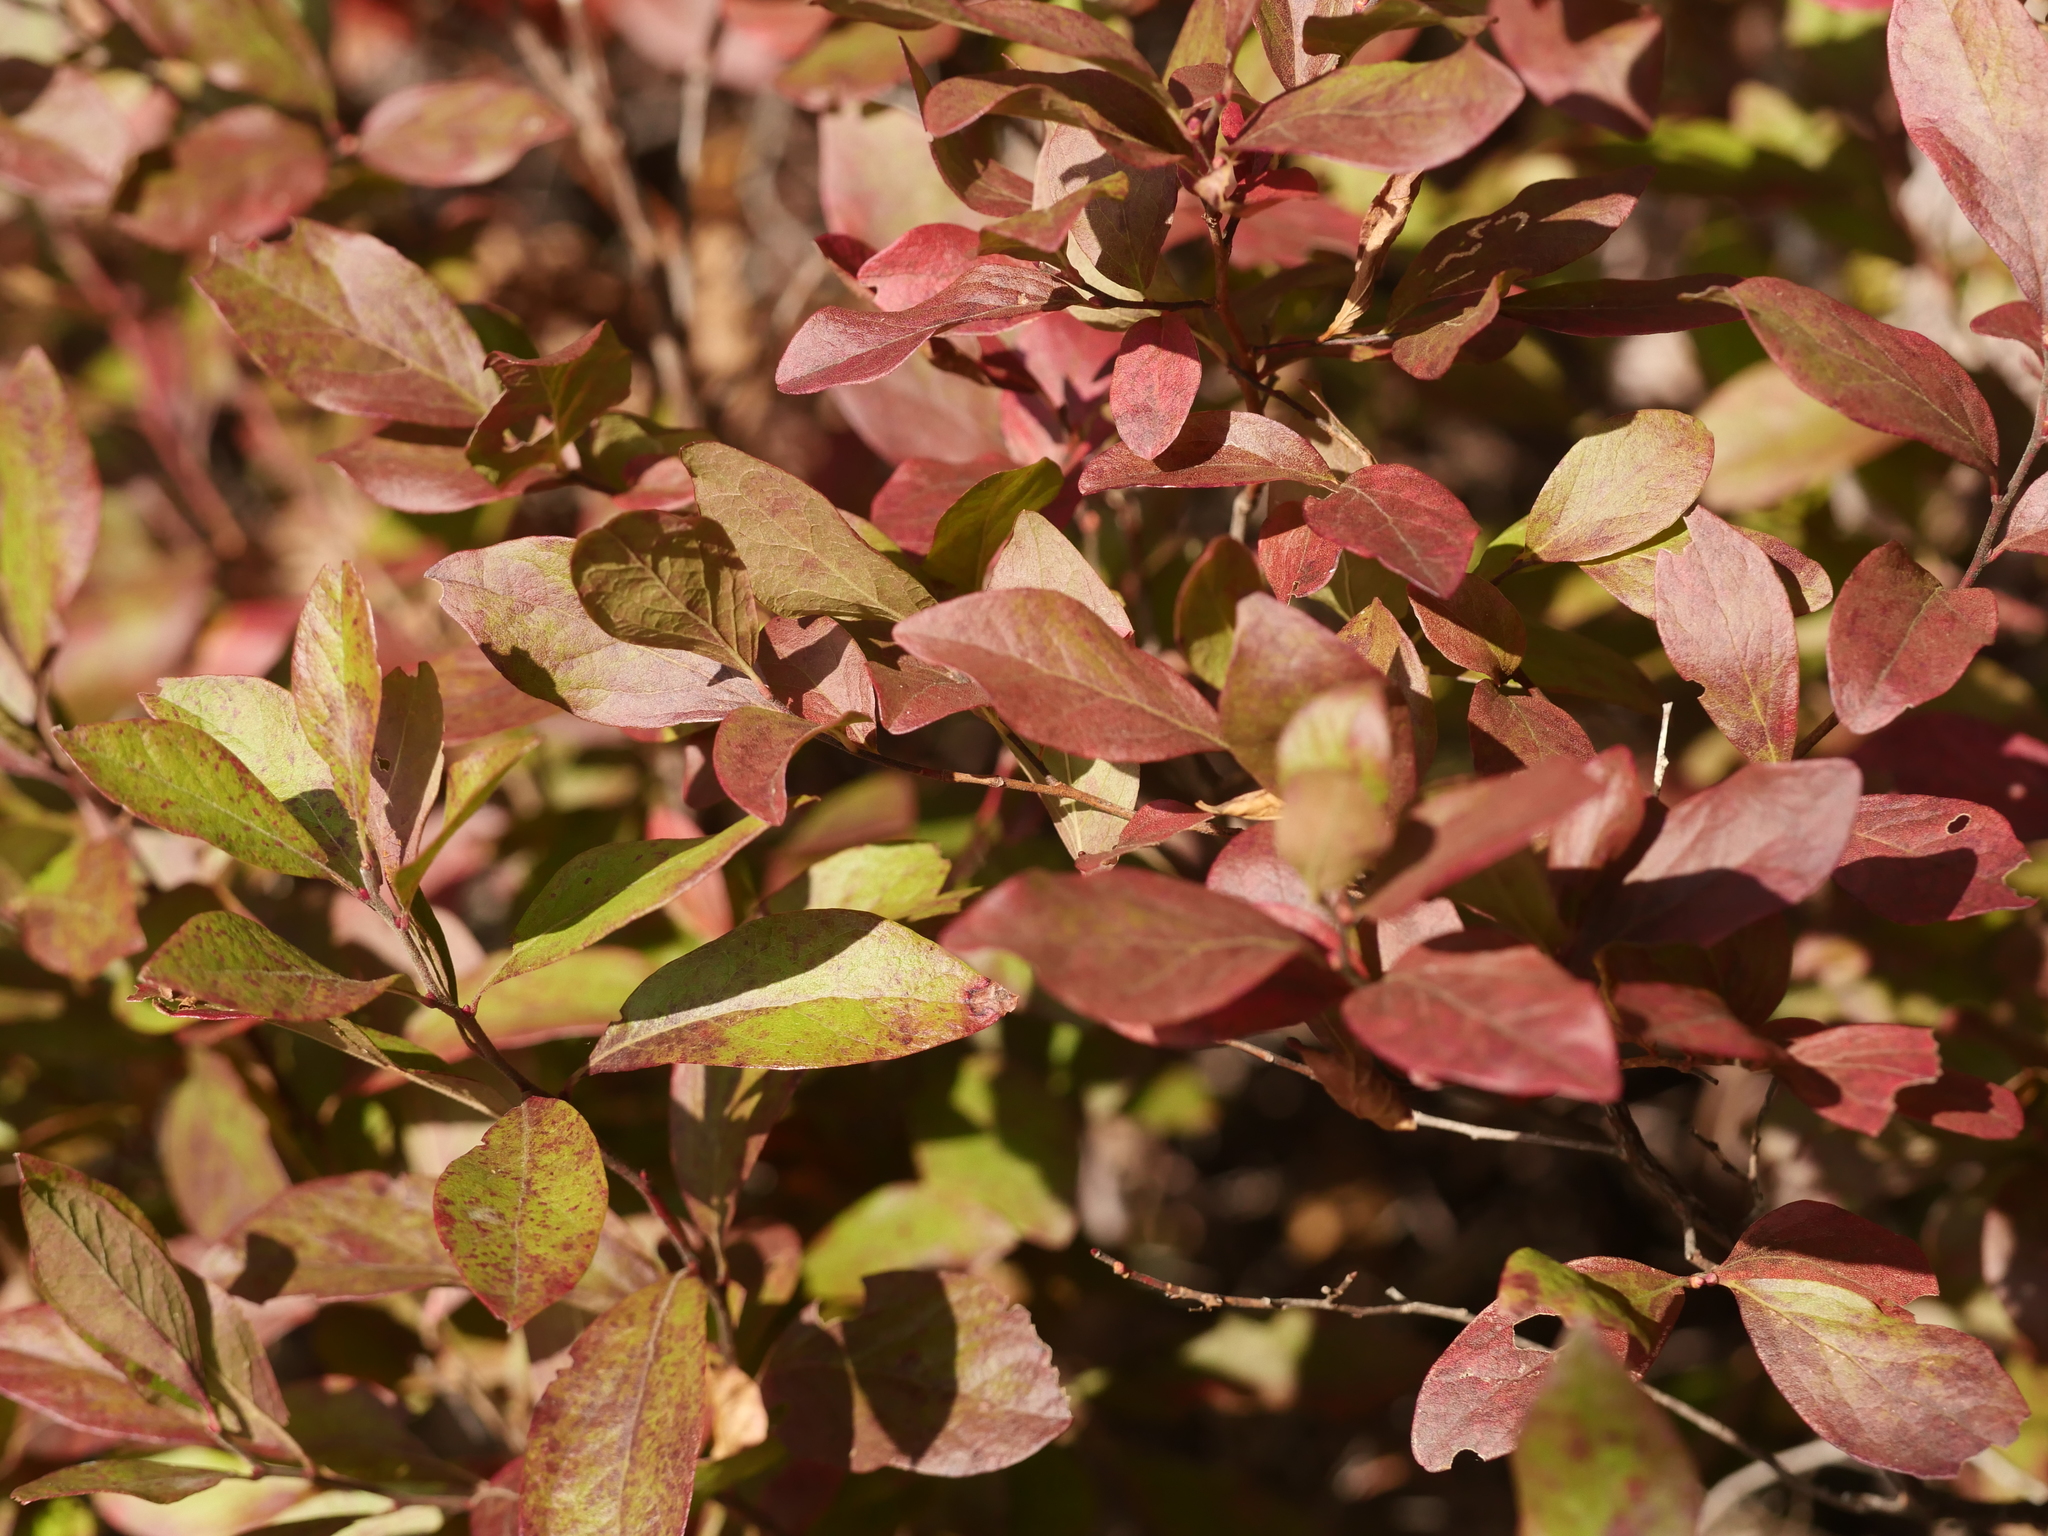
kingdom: Plantae
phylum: Tracheophyta
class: Magnoliopsida
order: Ericales
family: Ericaceae
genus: Vaccinium
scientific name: Vaccinium angustifolium
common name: Early lowbush blueberry
